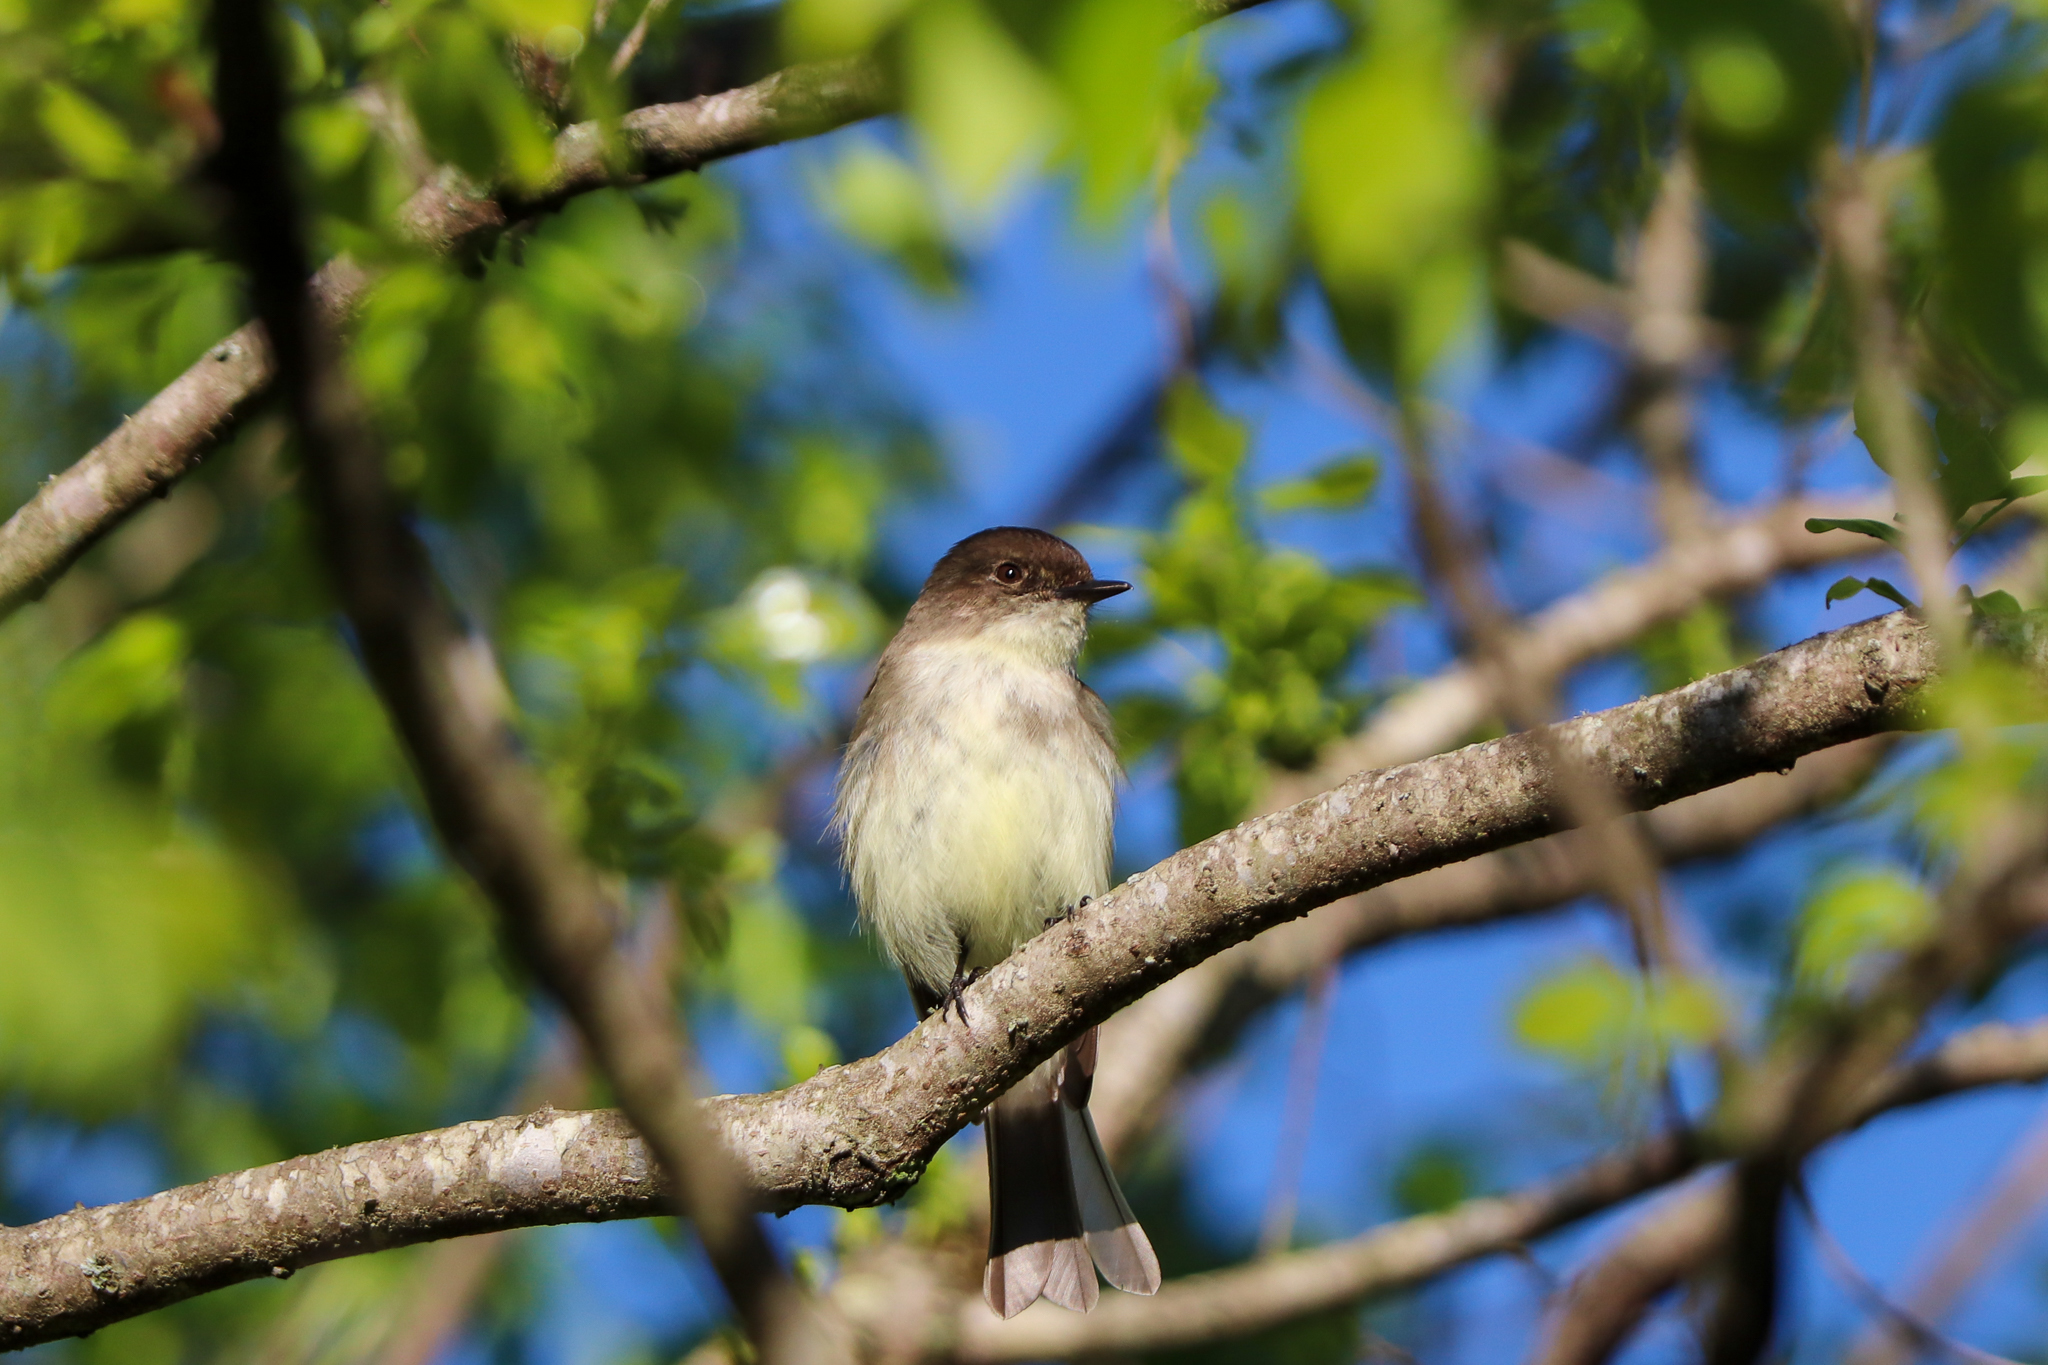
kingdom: Animalia
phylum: Chordata
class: Aves
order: Passeriformes
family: Tyrannidae
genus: Sayornis
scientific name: Sayornis phoebe
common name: Eastern phoebe
